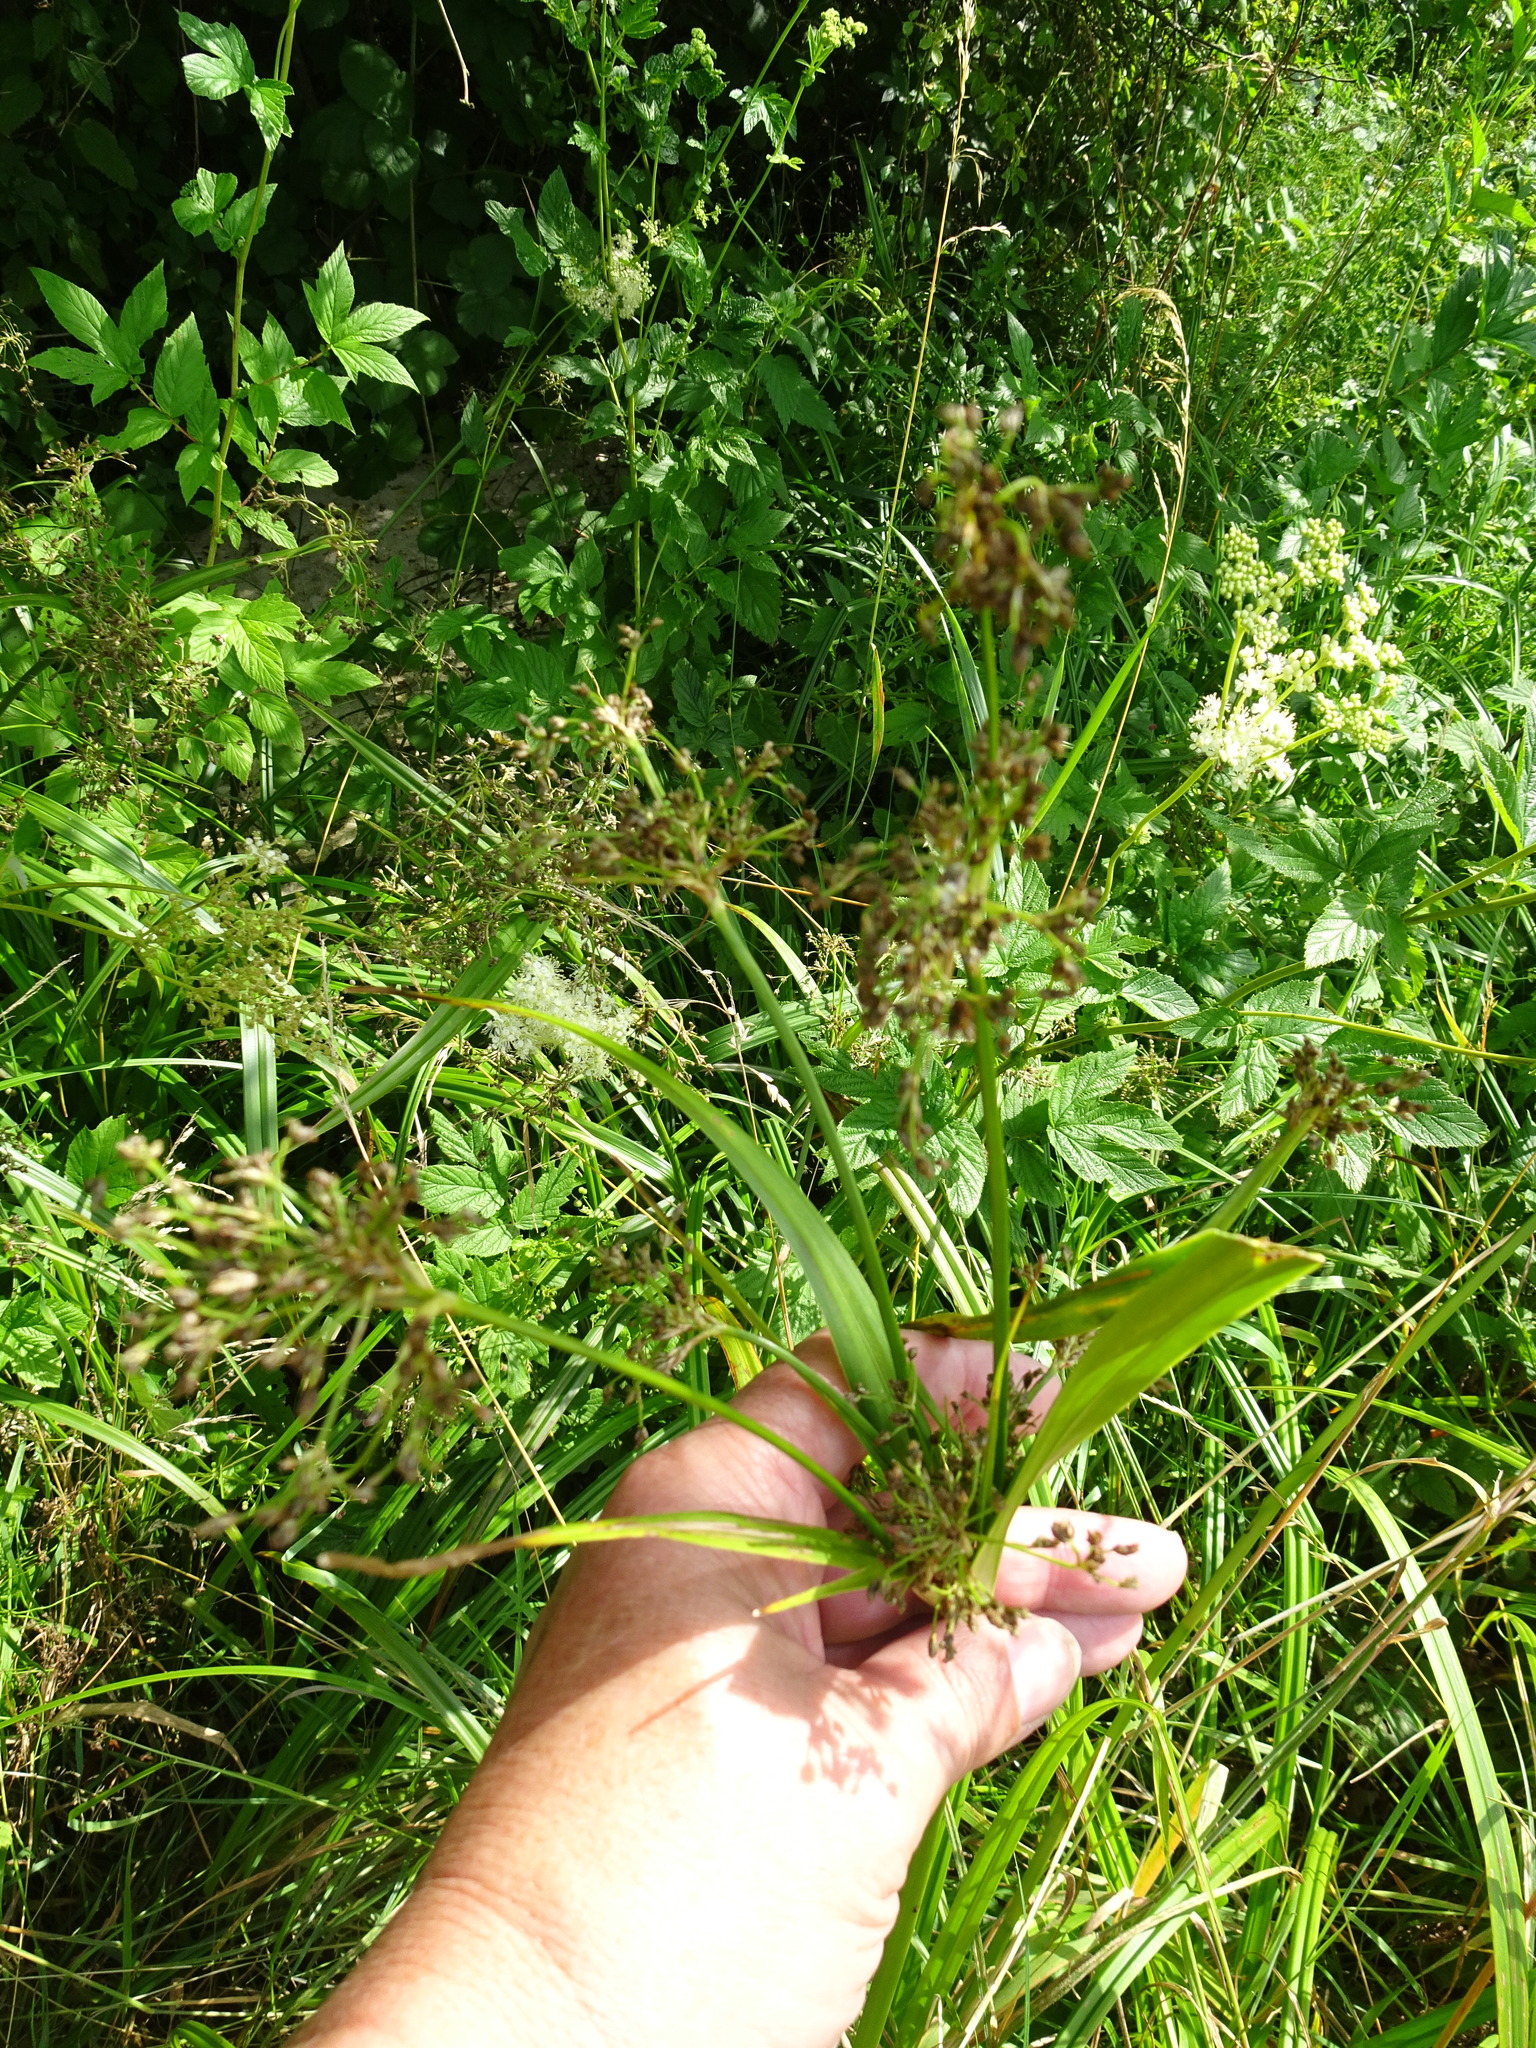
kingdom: Plantae
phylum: Tracheophyta
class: Liliopsida
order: Poales
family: Cyperaceae
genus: Scirpus
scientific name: Scirpus sylvaticus
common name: Wood club-rush
